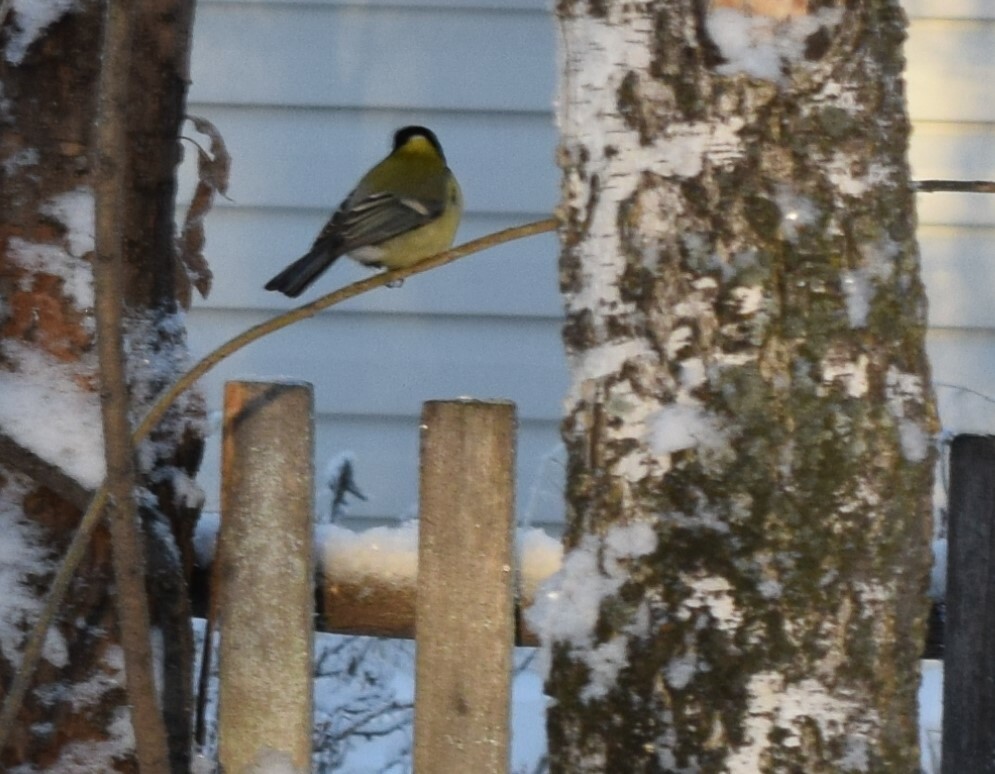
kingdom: Animalia
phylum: Chordata
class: Aves
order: Passeriformes
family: Paridae
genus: Parus
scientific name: Parus major
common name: Great tit
